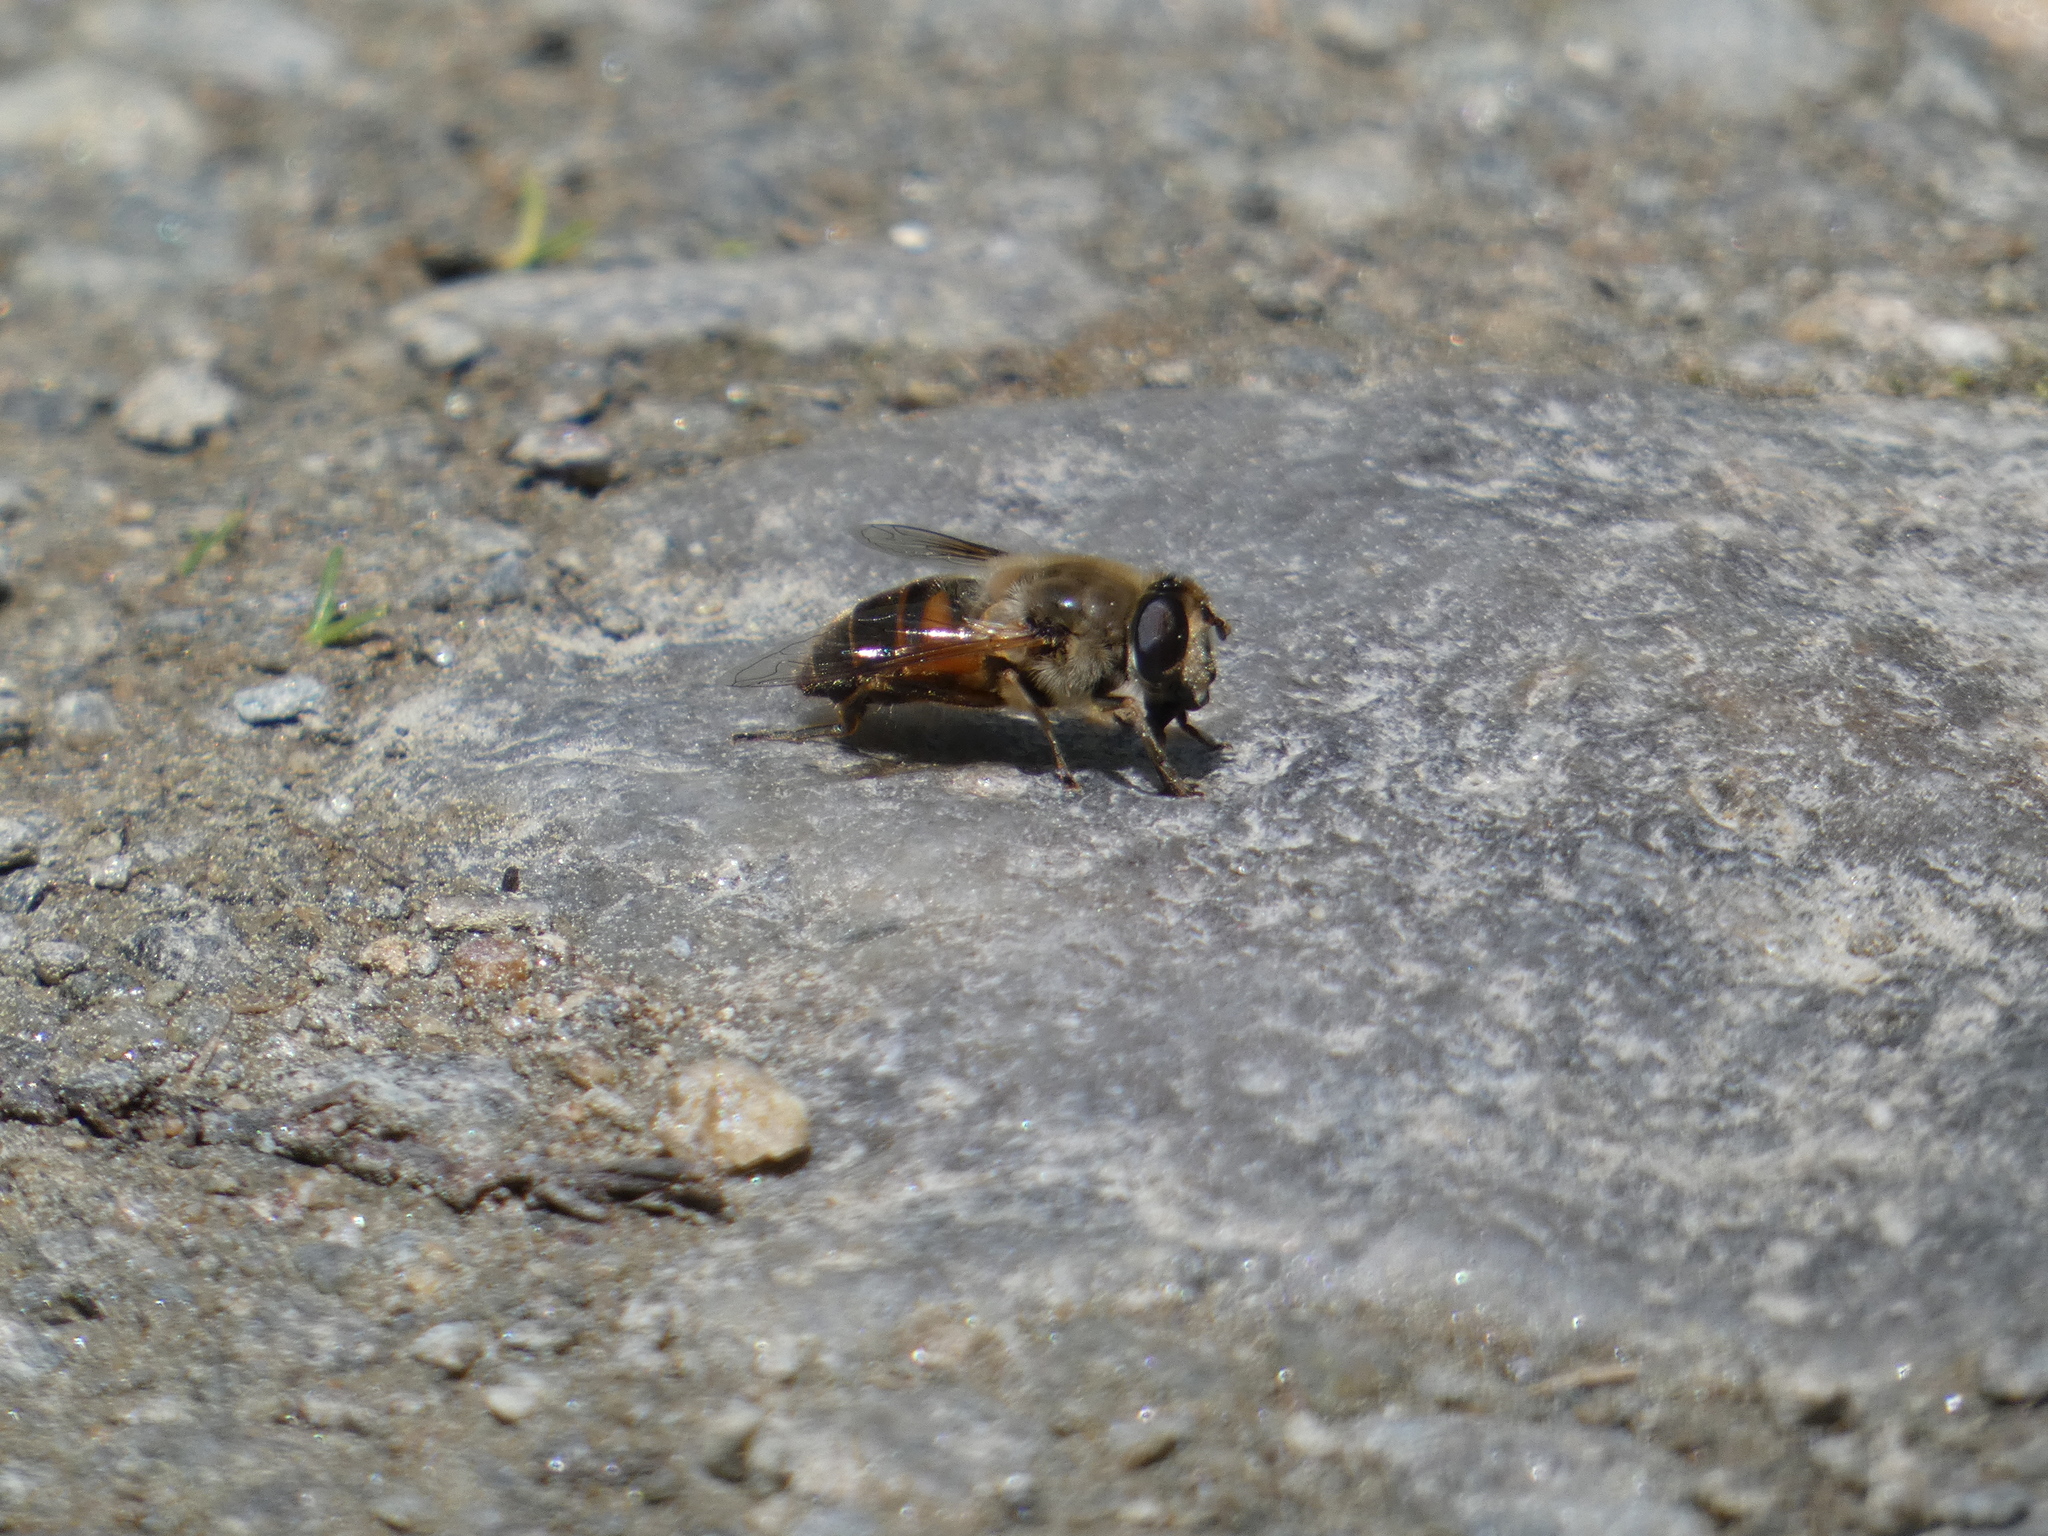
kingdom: Animalia
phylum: Arthropoda
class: Insecta
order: Diptera
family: Syrphidae
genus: Eristalis
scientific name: Eristalis tenax
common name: Drone fly
